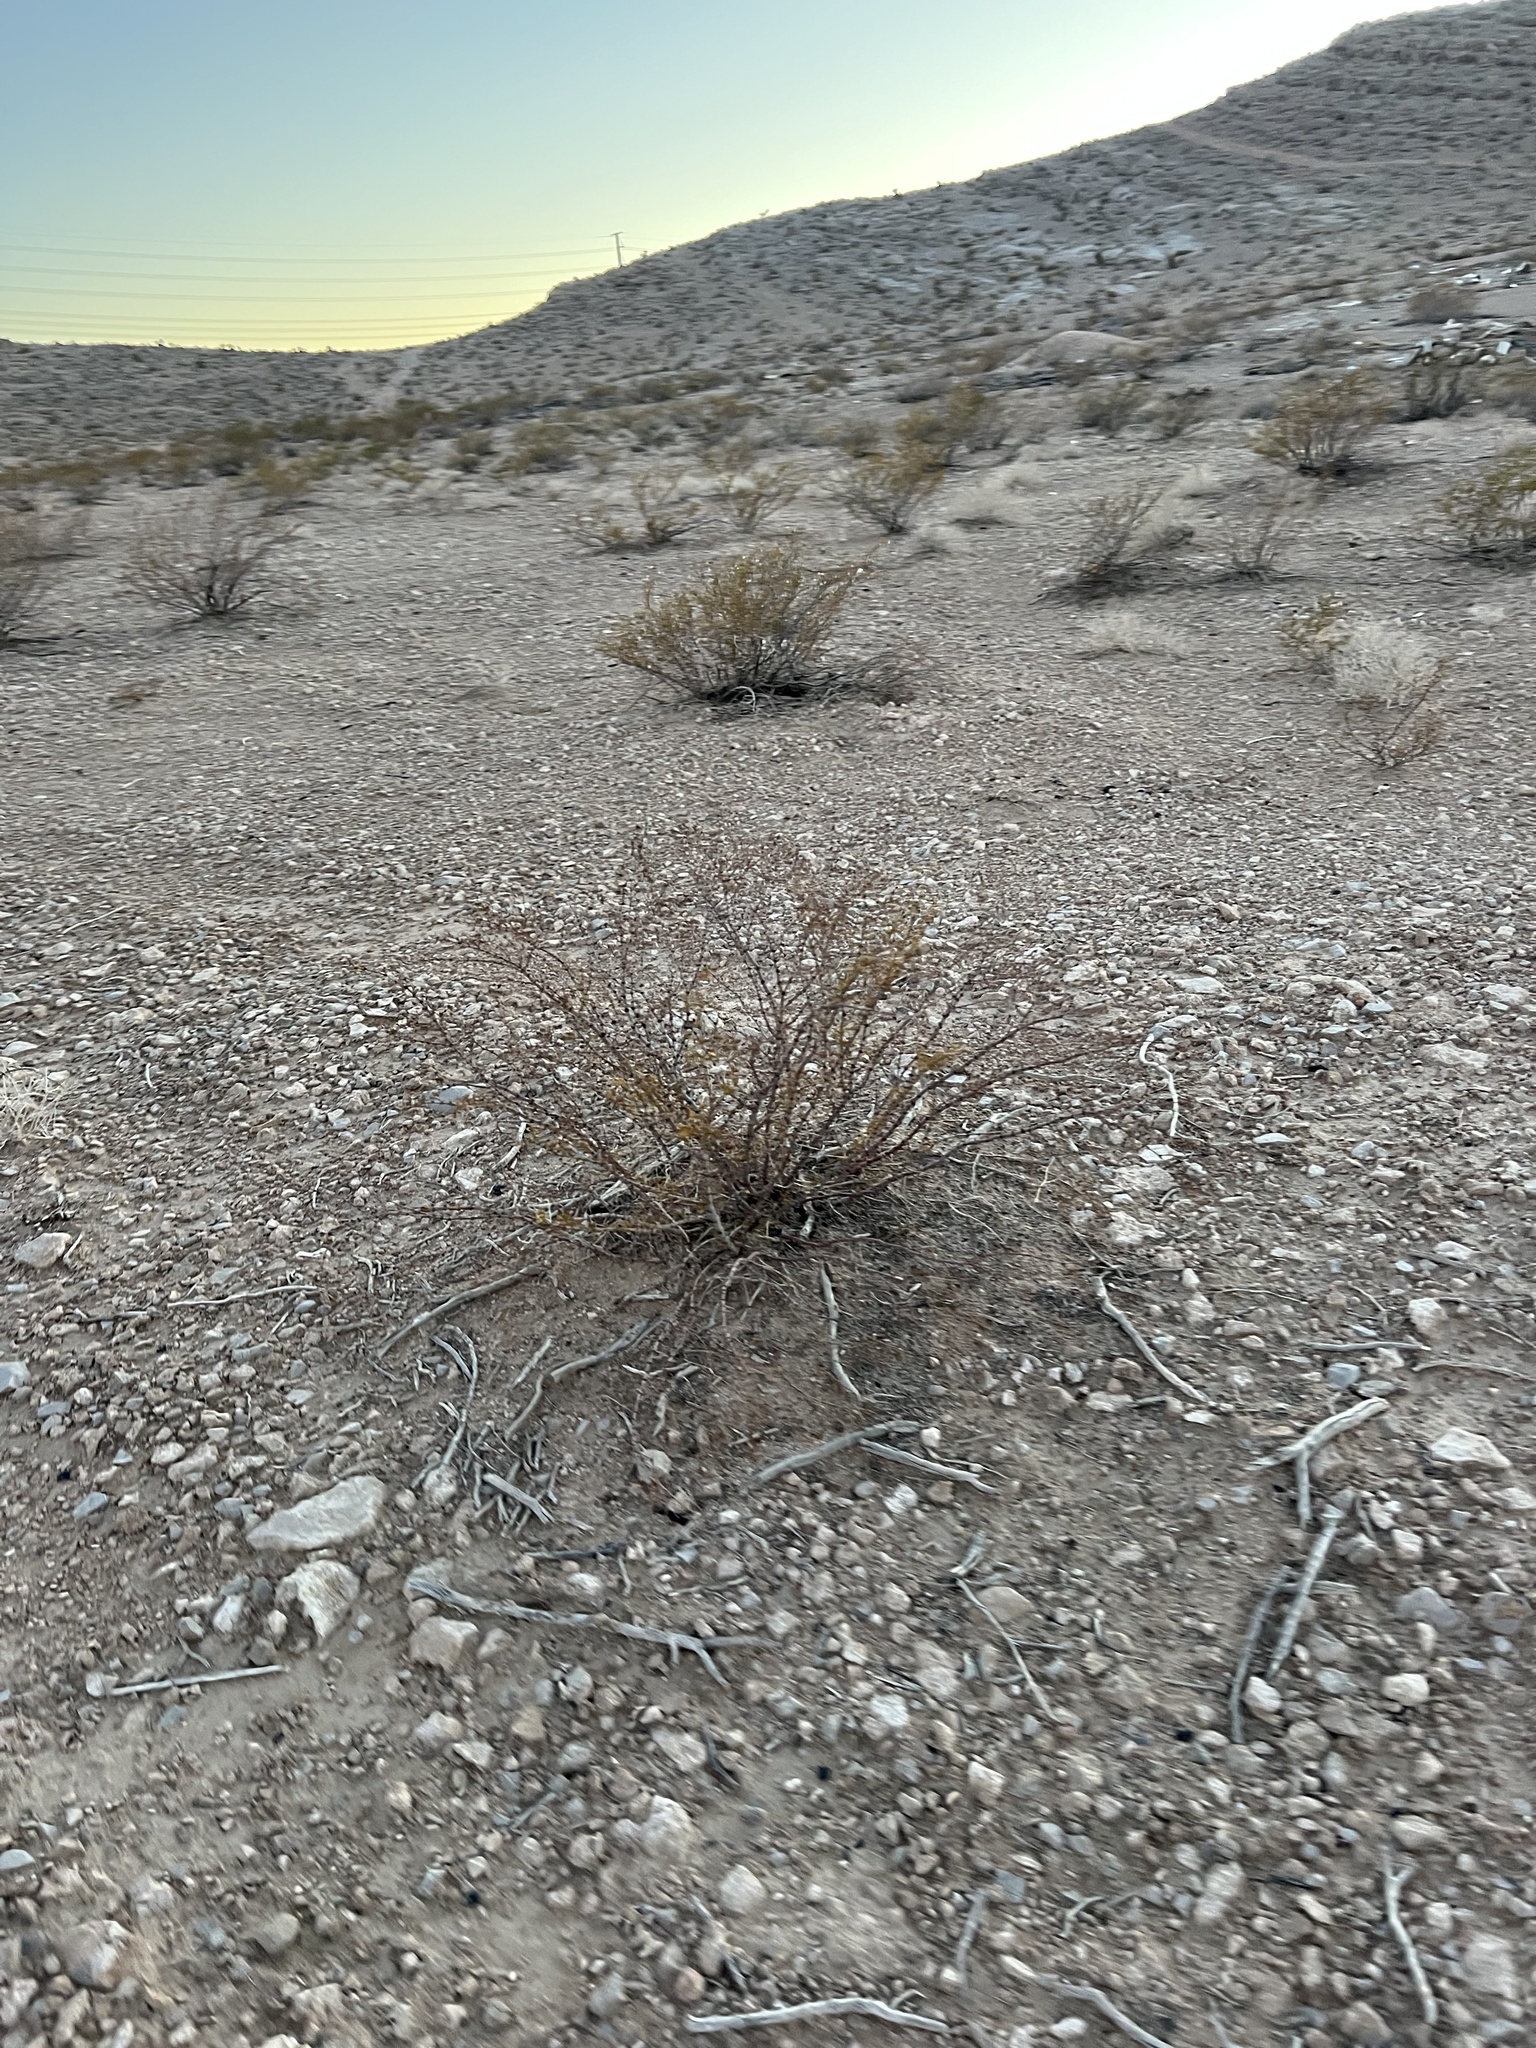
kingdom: Plantae
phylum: Tracheophyta
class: Magnoliopsida
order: Zygophyllales
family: Zygophyllaceae
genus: Larrea
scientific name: Larrea tridentata
